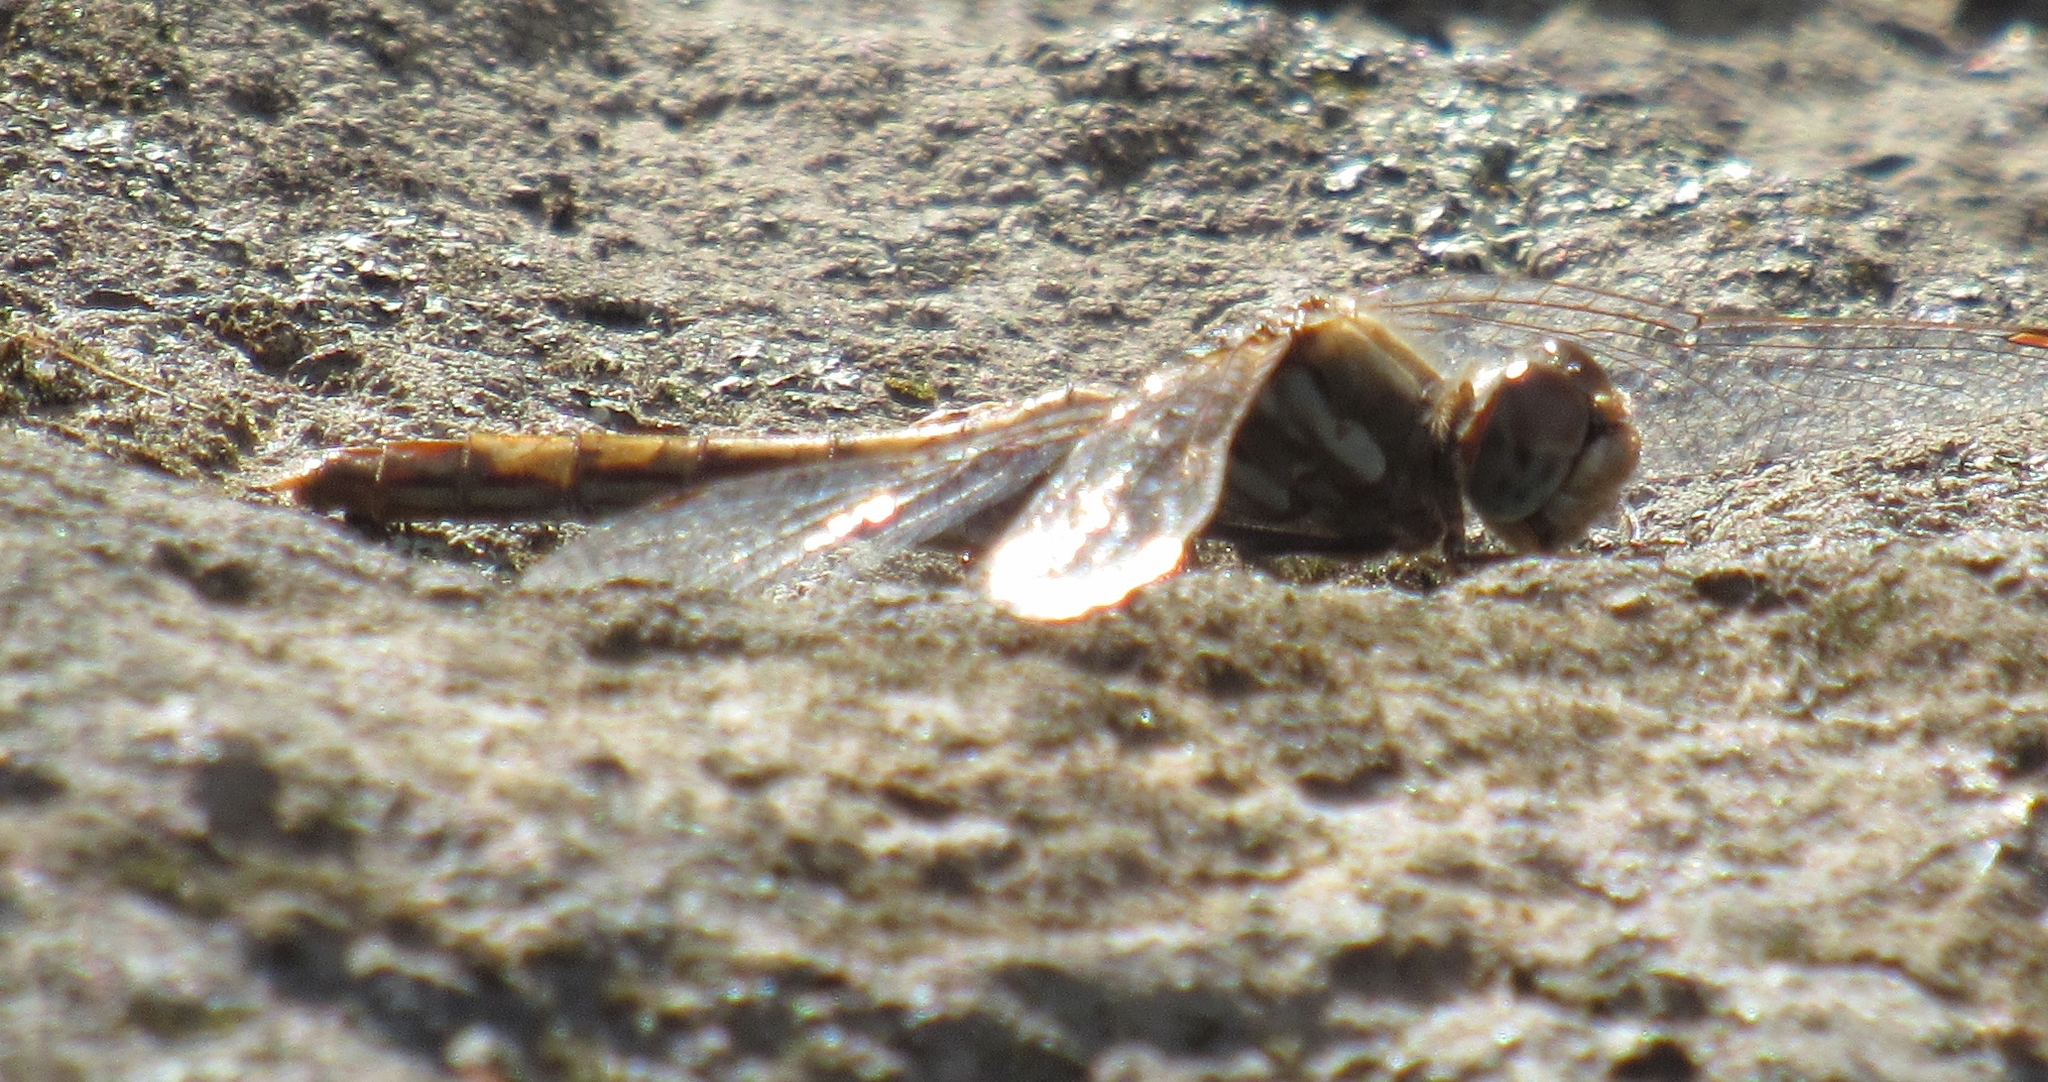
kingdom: Animalia
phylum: Arthropoda
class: Insecta
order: Odonata
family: Libellulidae
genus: Sympetrum
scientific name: Sympetrum pallipes
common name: Striped meadowhawk
